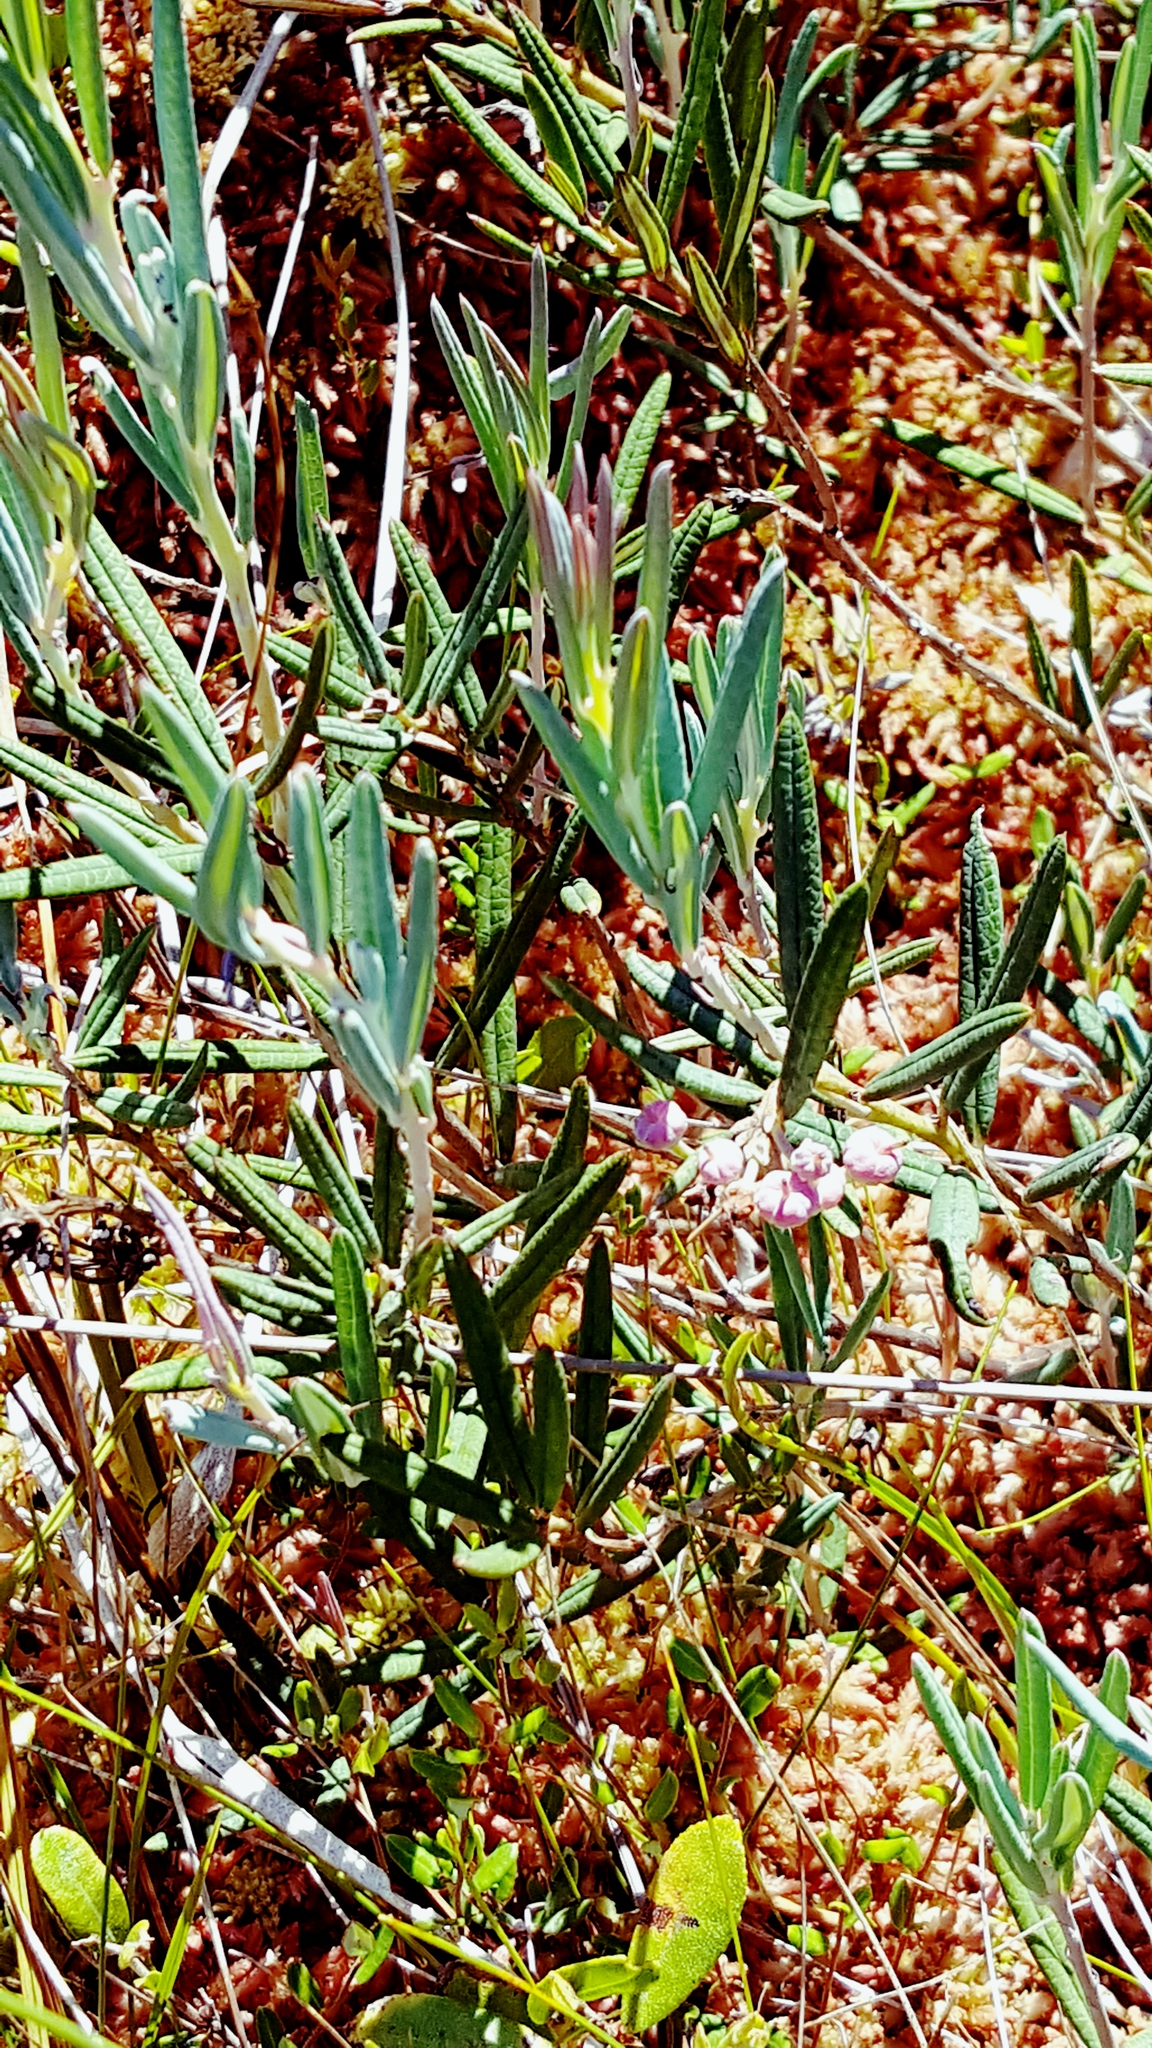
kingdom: Plantae
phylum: Tracheophyta
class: Magnoliopsida
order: Ericales
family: Ericaceae
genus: Andromeda
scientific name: Andromeda polifolia
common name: Bog-rosemary
